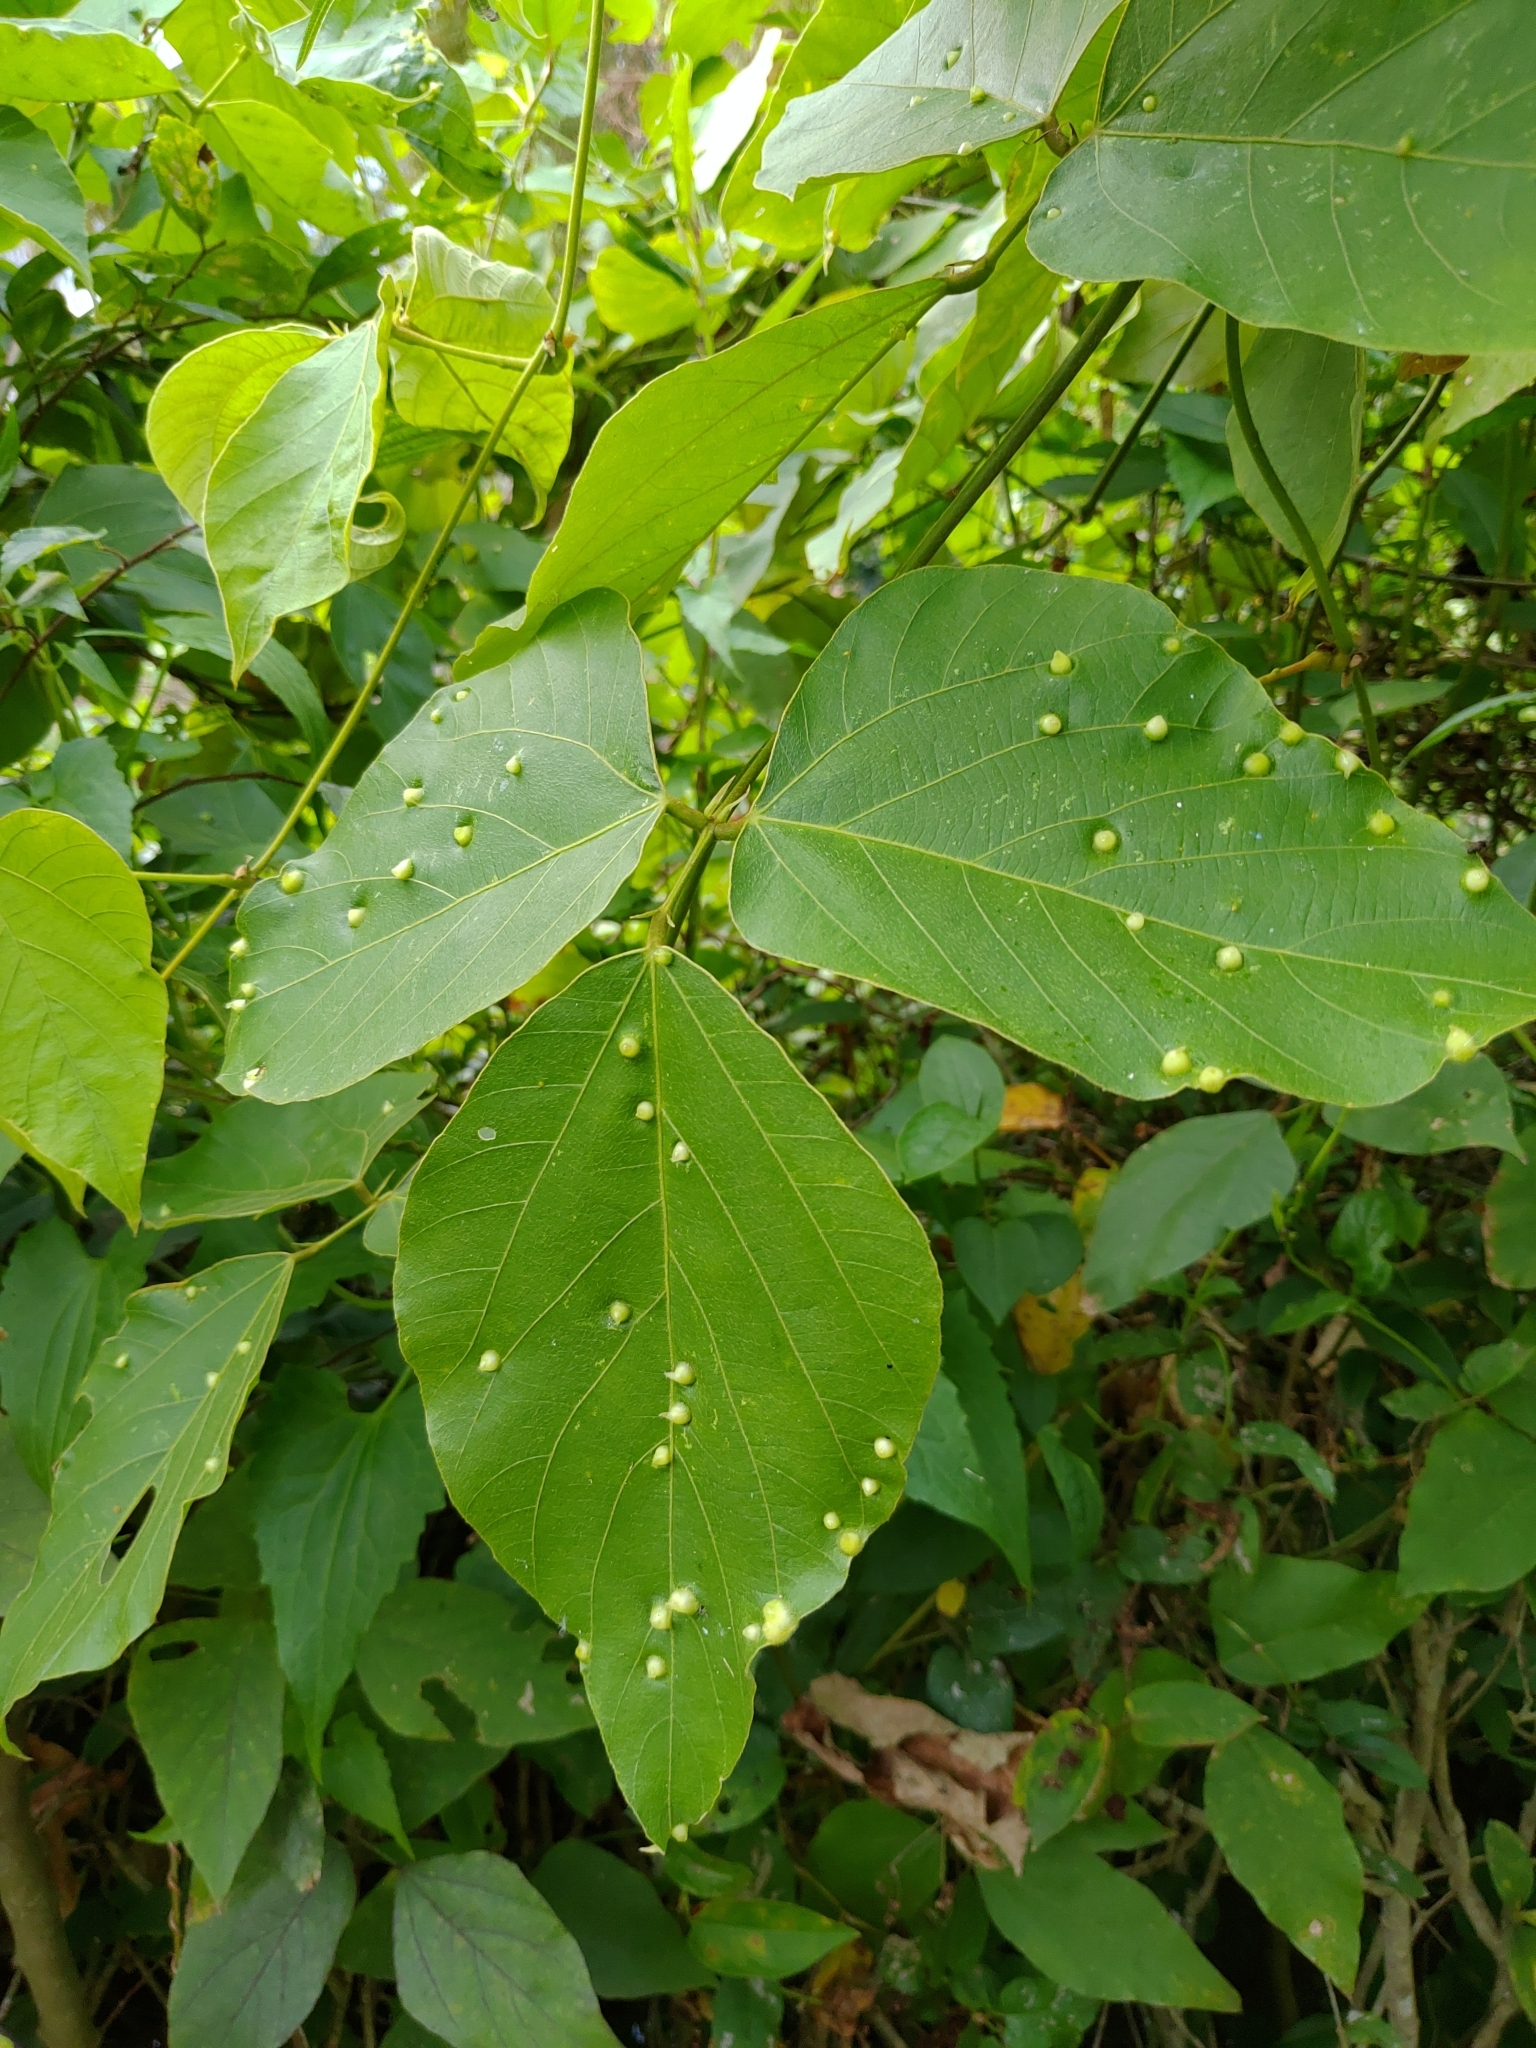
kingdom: Plantae
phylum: Tracheophyta
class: Magnoliopsida
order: Fabales
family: Fabaceae
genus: Pueraria
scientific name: Pueraria montana
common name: Kudzu
